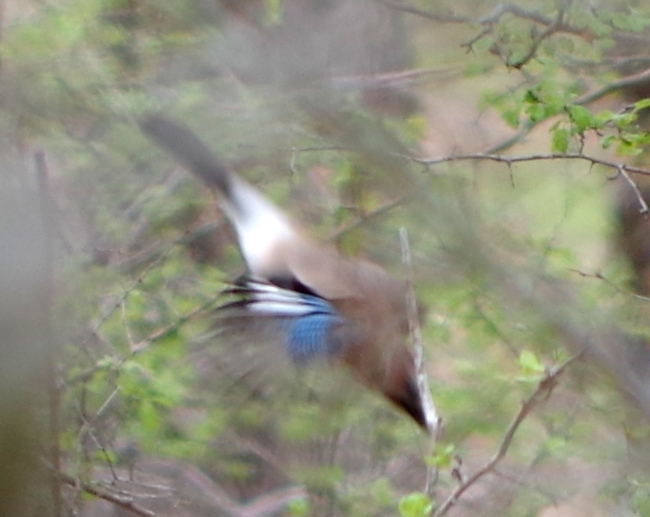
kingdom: Animalia
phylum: Chordata
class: Aves
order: Passeriformes
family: Corvidae
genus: Garrulus
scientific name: Garrulus glandarius
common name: Eurasian jay
